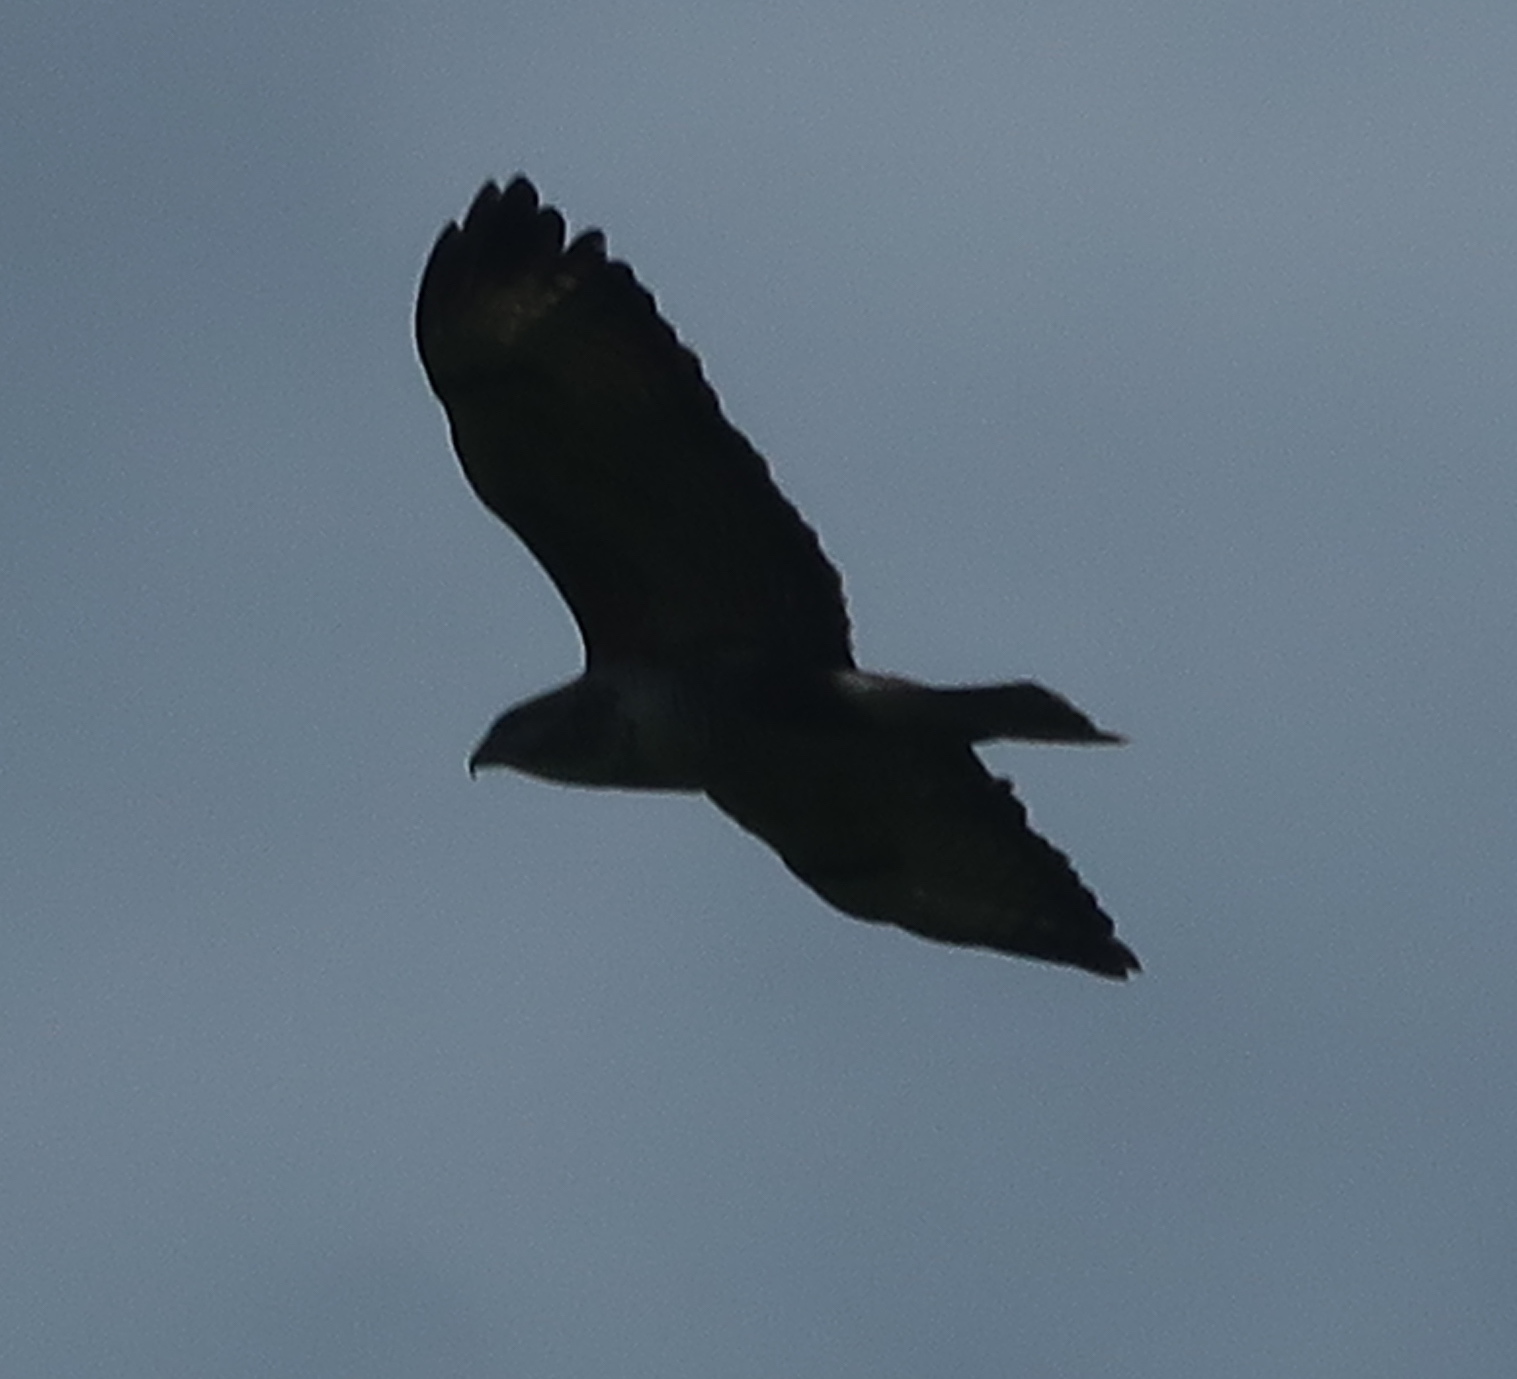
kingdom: Animalia
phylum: Chordata
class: Aves
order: Accipitriformes
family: Accipitridae
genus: Buteo
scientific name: Buteo buteo
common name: Common buzzard
